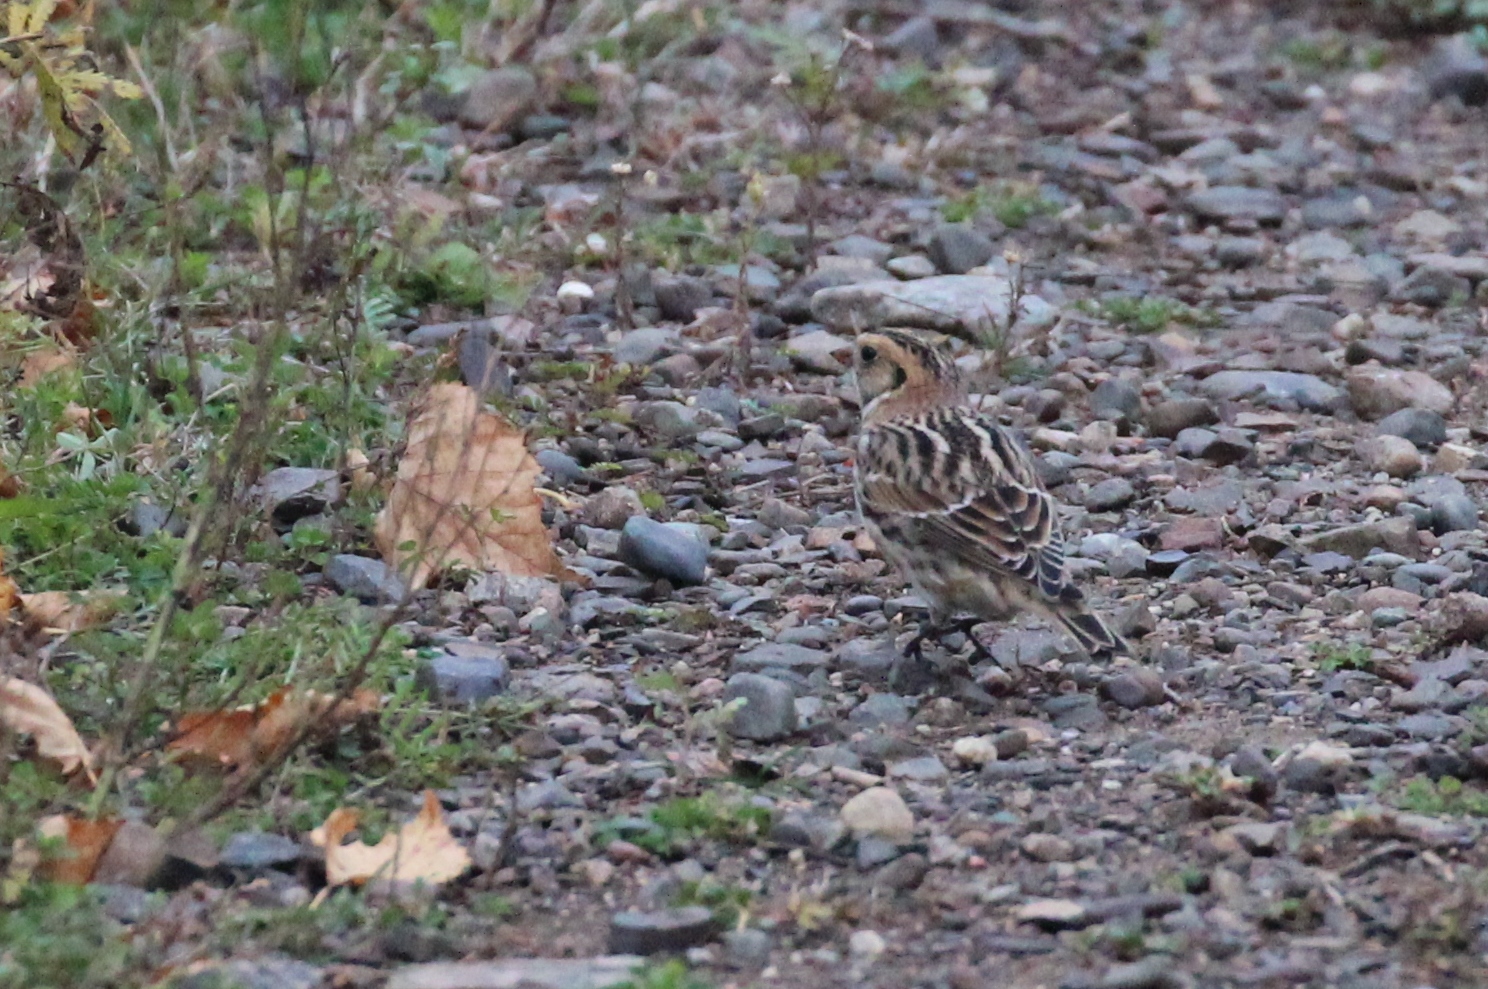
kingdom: Animalia
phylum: Chordata
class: Aves
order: Passeriformes
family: Calcariidae
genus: Calcarius
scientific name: Calcarius lapponicus
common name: Lapland longspur
